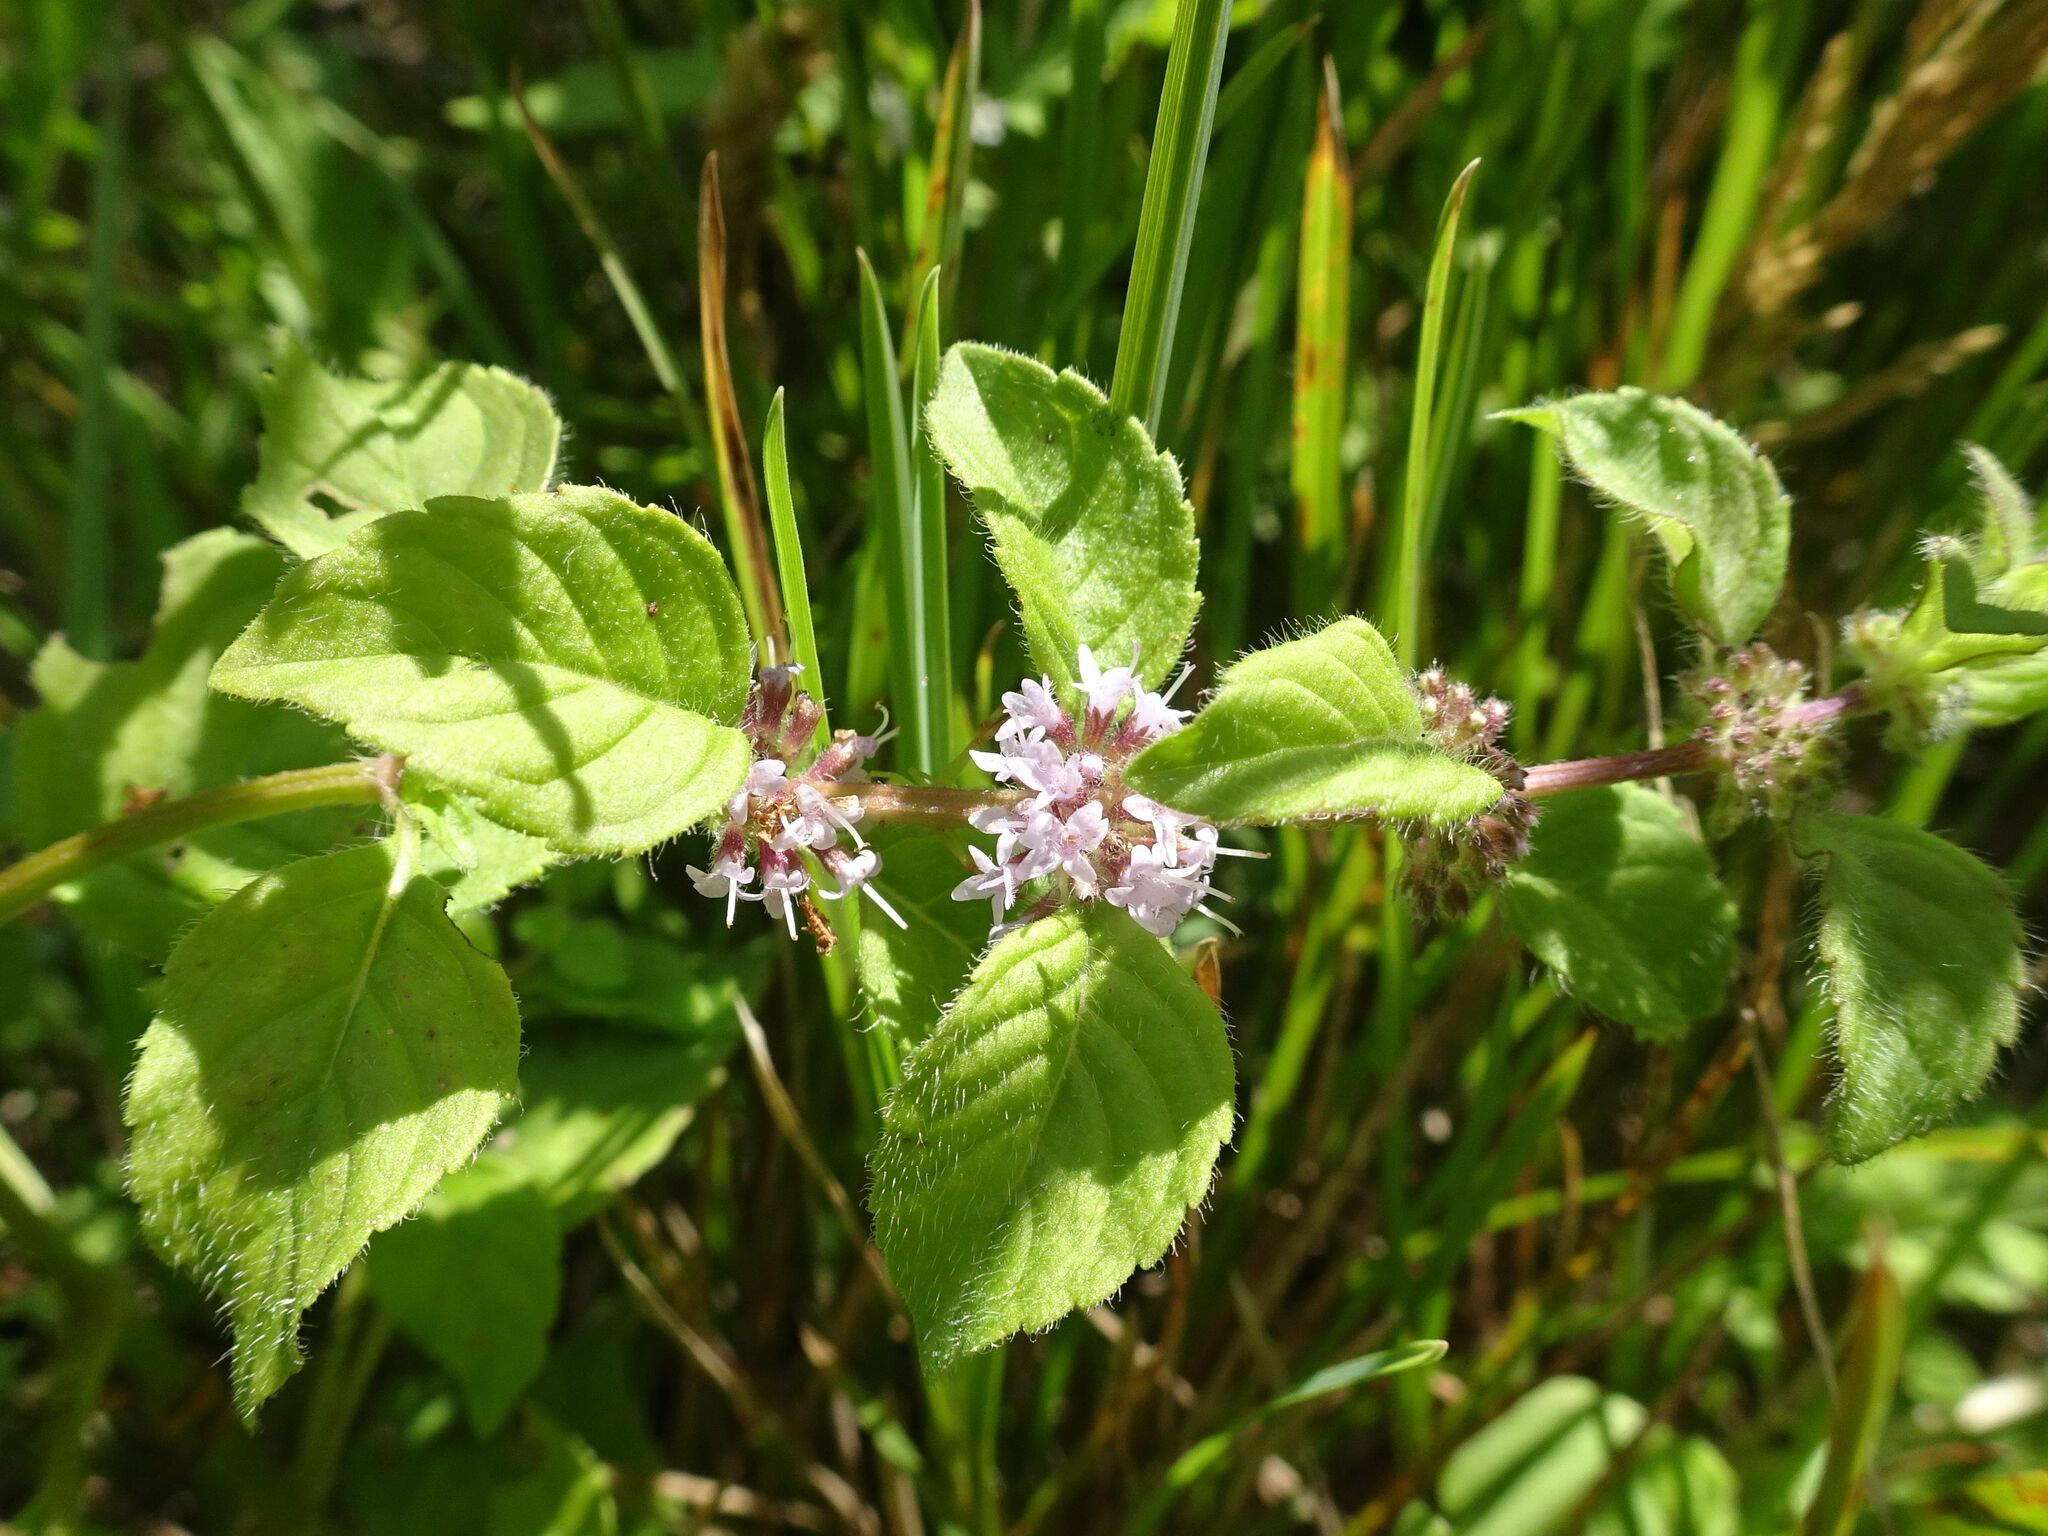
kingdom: Plantae
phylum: Tracheophyta
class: Magnoliopsida
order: Lamiales
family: Lamiaceae
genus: Mentha
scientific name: Mentha arvensis
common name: Corn mint
